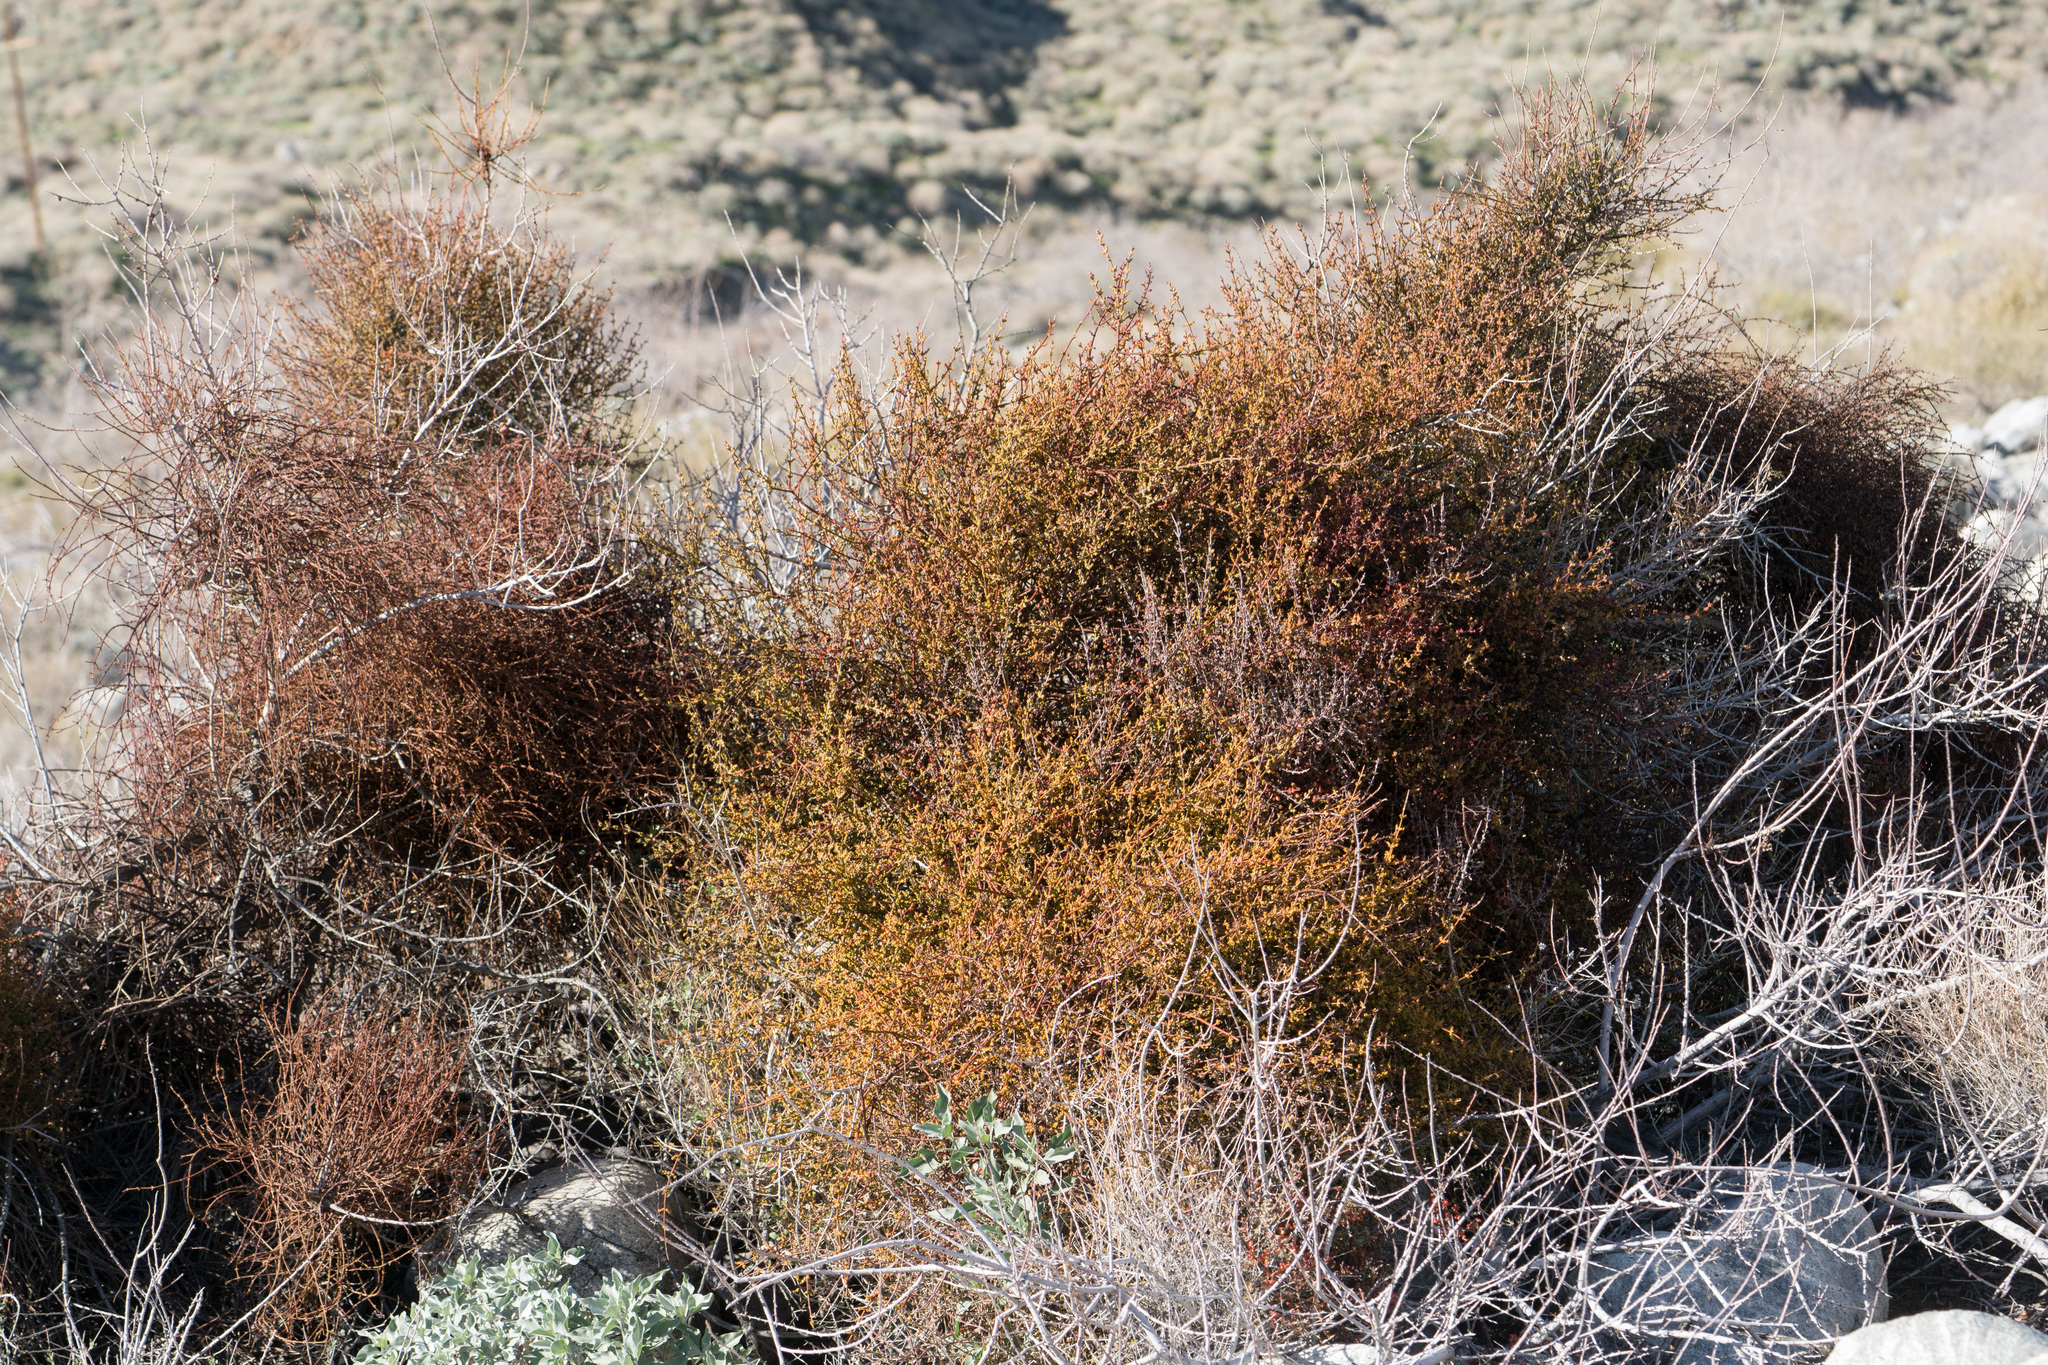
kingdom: Plantae
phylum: Tracheophyta
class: Magnoliopsida
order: Santalales
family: Viscaceae
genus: Phoradendron
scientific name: Phoradendron californicum
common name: Acacia mistletoe
